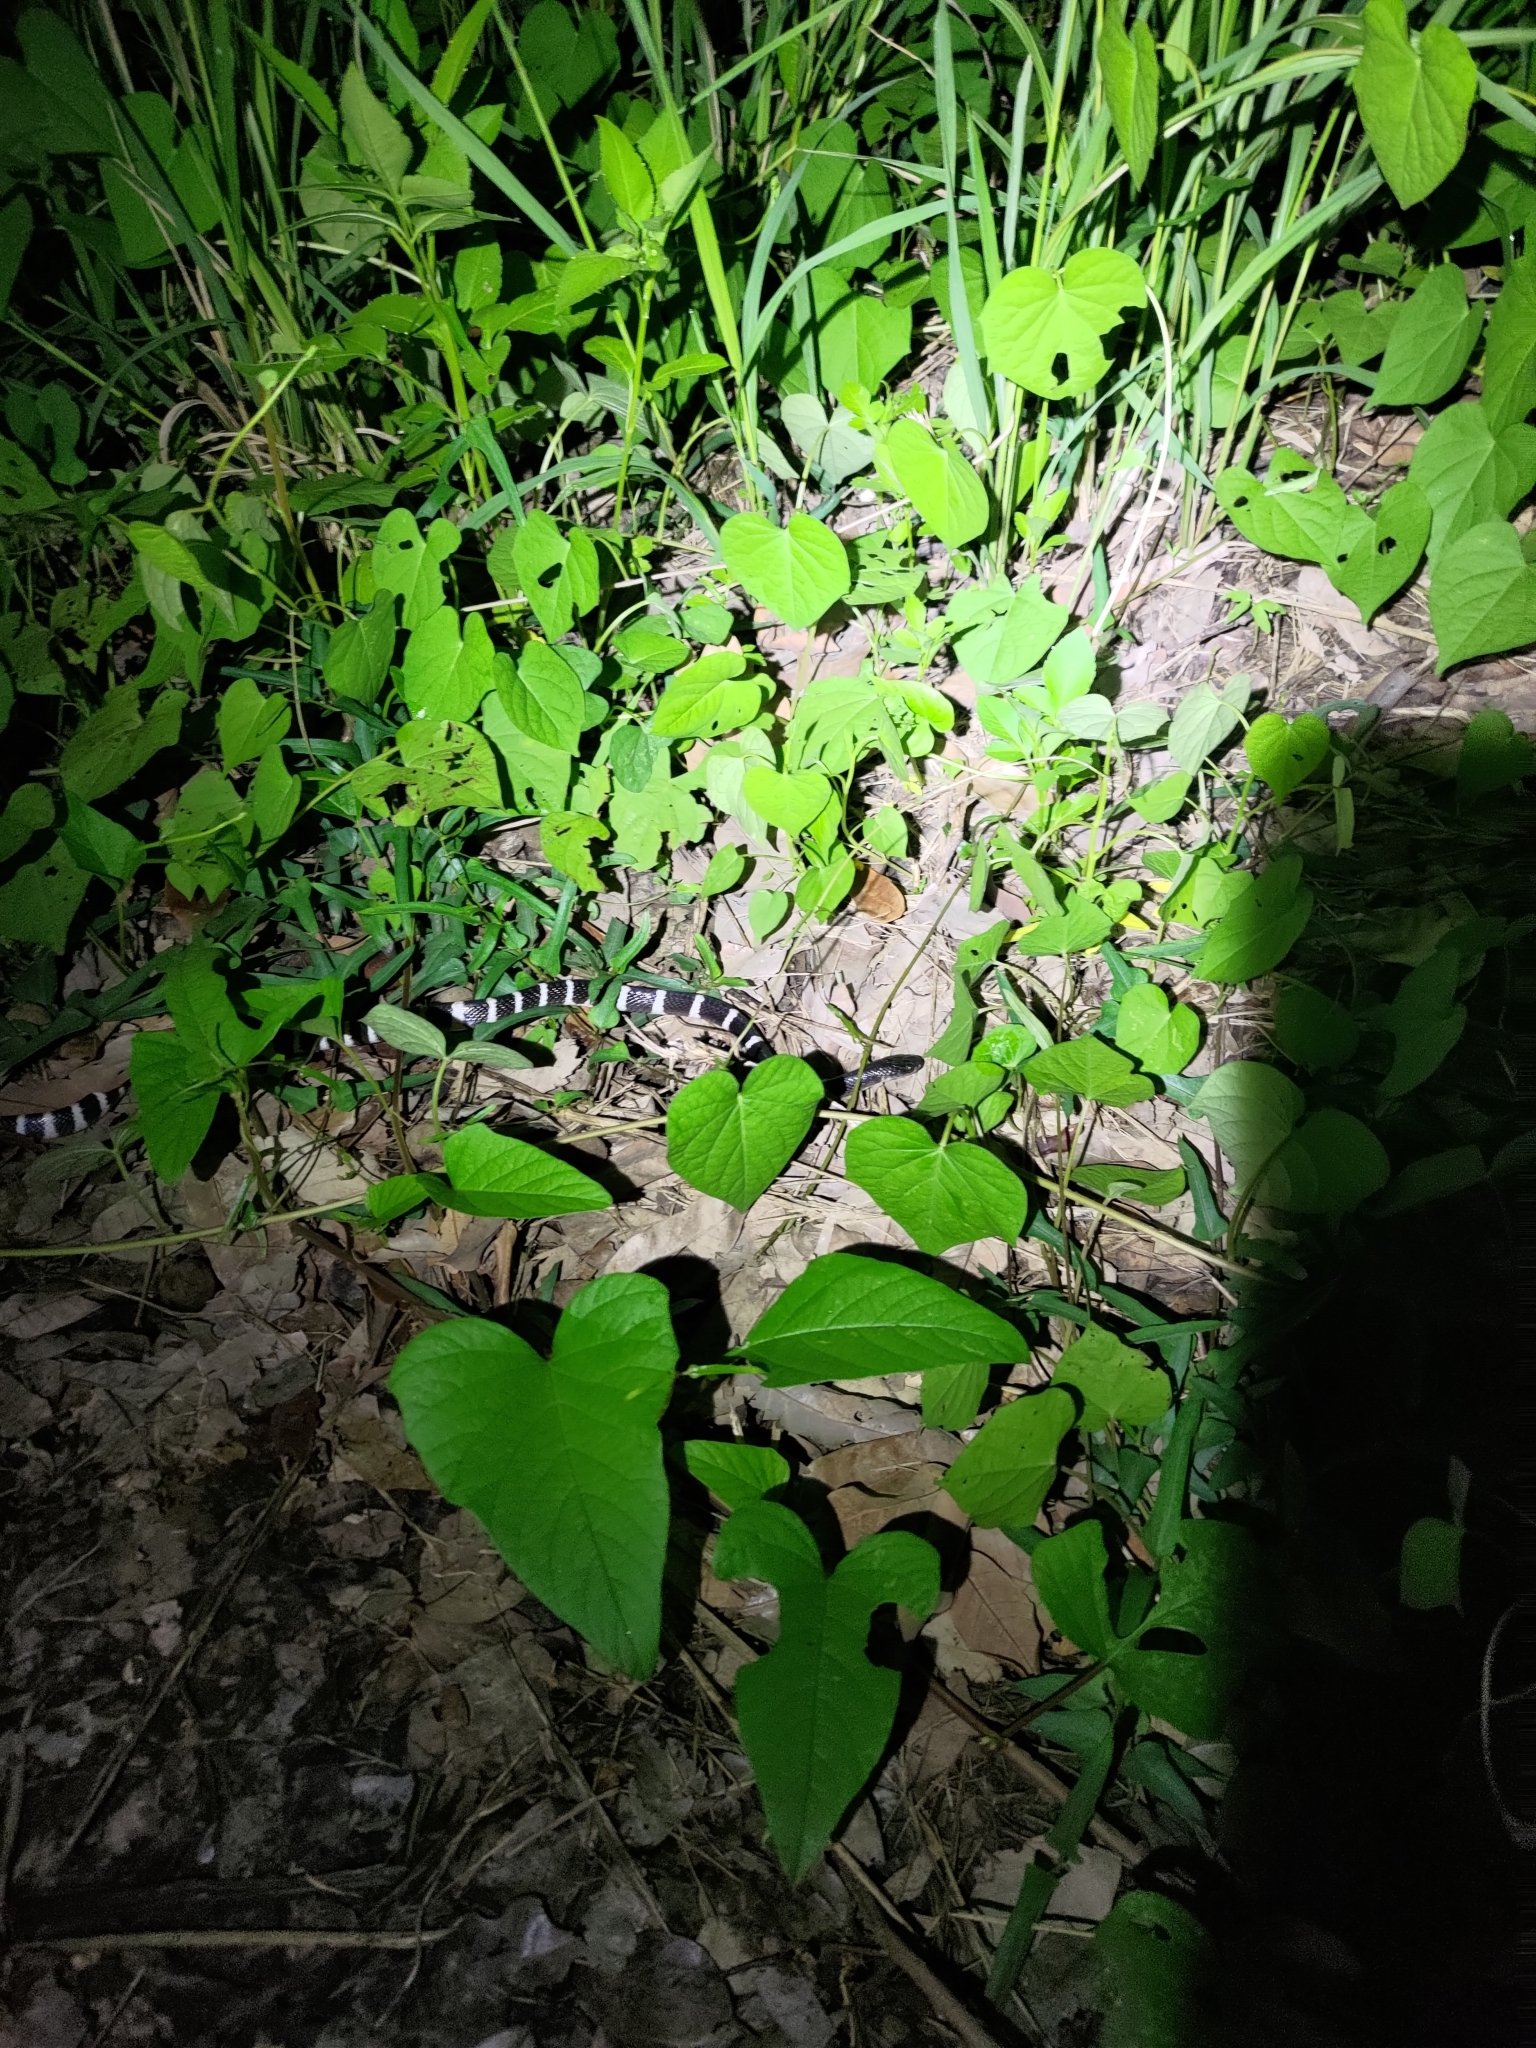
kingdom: Animalia
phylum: Chordata
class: Squamata
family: Elapidae
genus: Bungarus
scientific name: Bungarus multicinctus
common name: Many-banded krait
